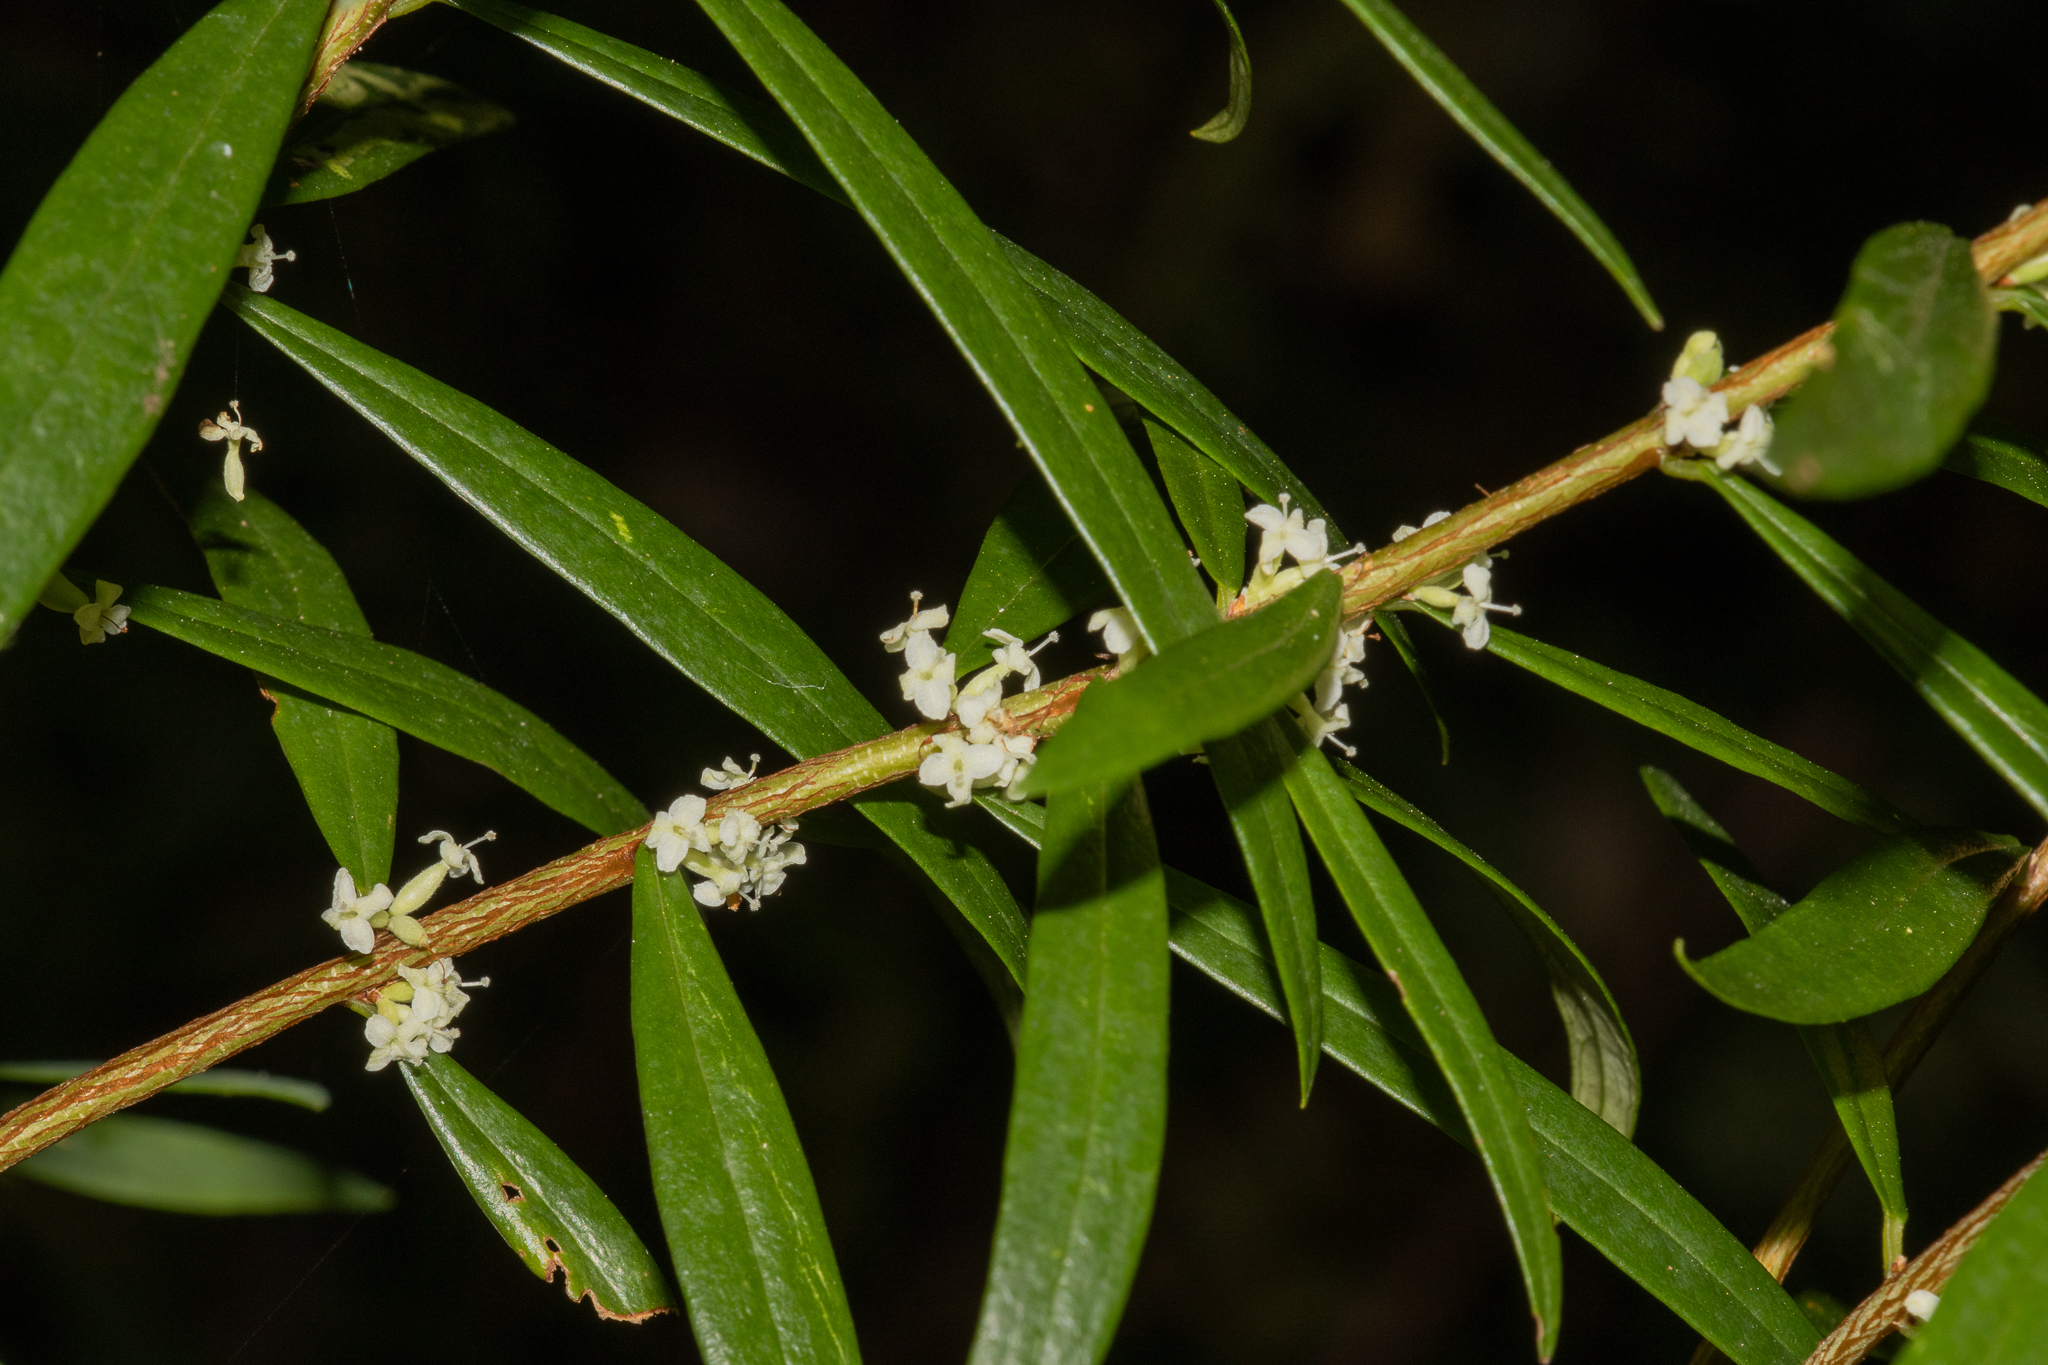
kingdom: Plantae
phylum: Tracheophyta
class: Magnoliopsida
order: Malvales
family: Thymelaeaceae
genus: Pimelea
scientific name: Pimelea axiflora
